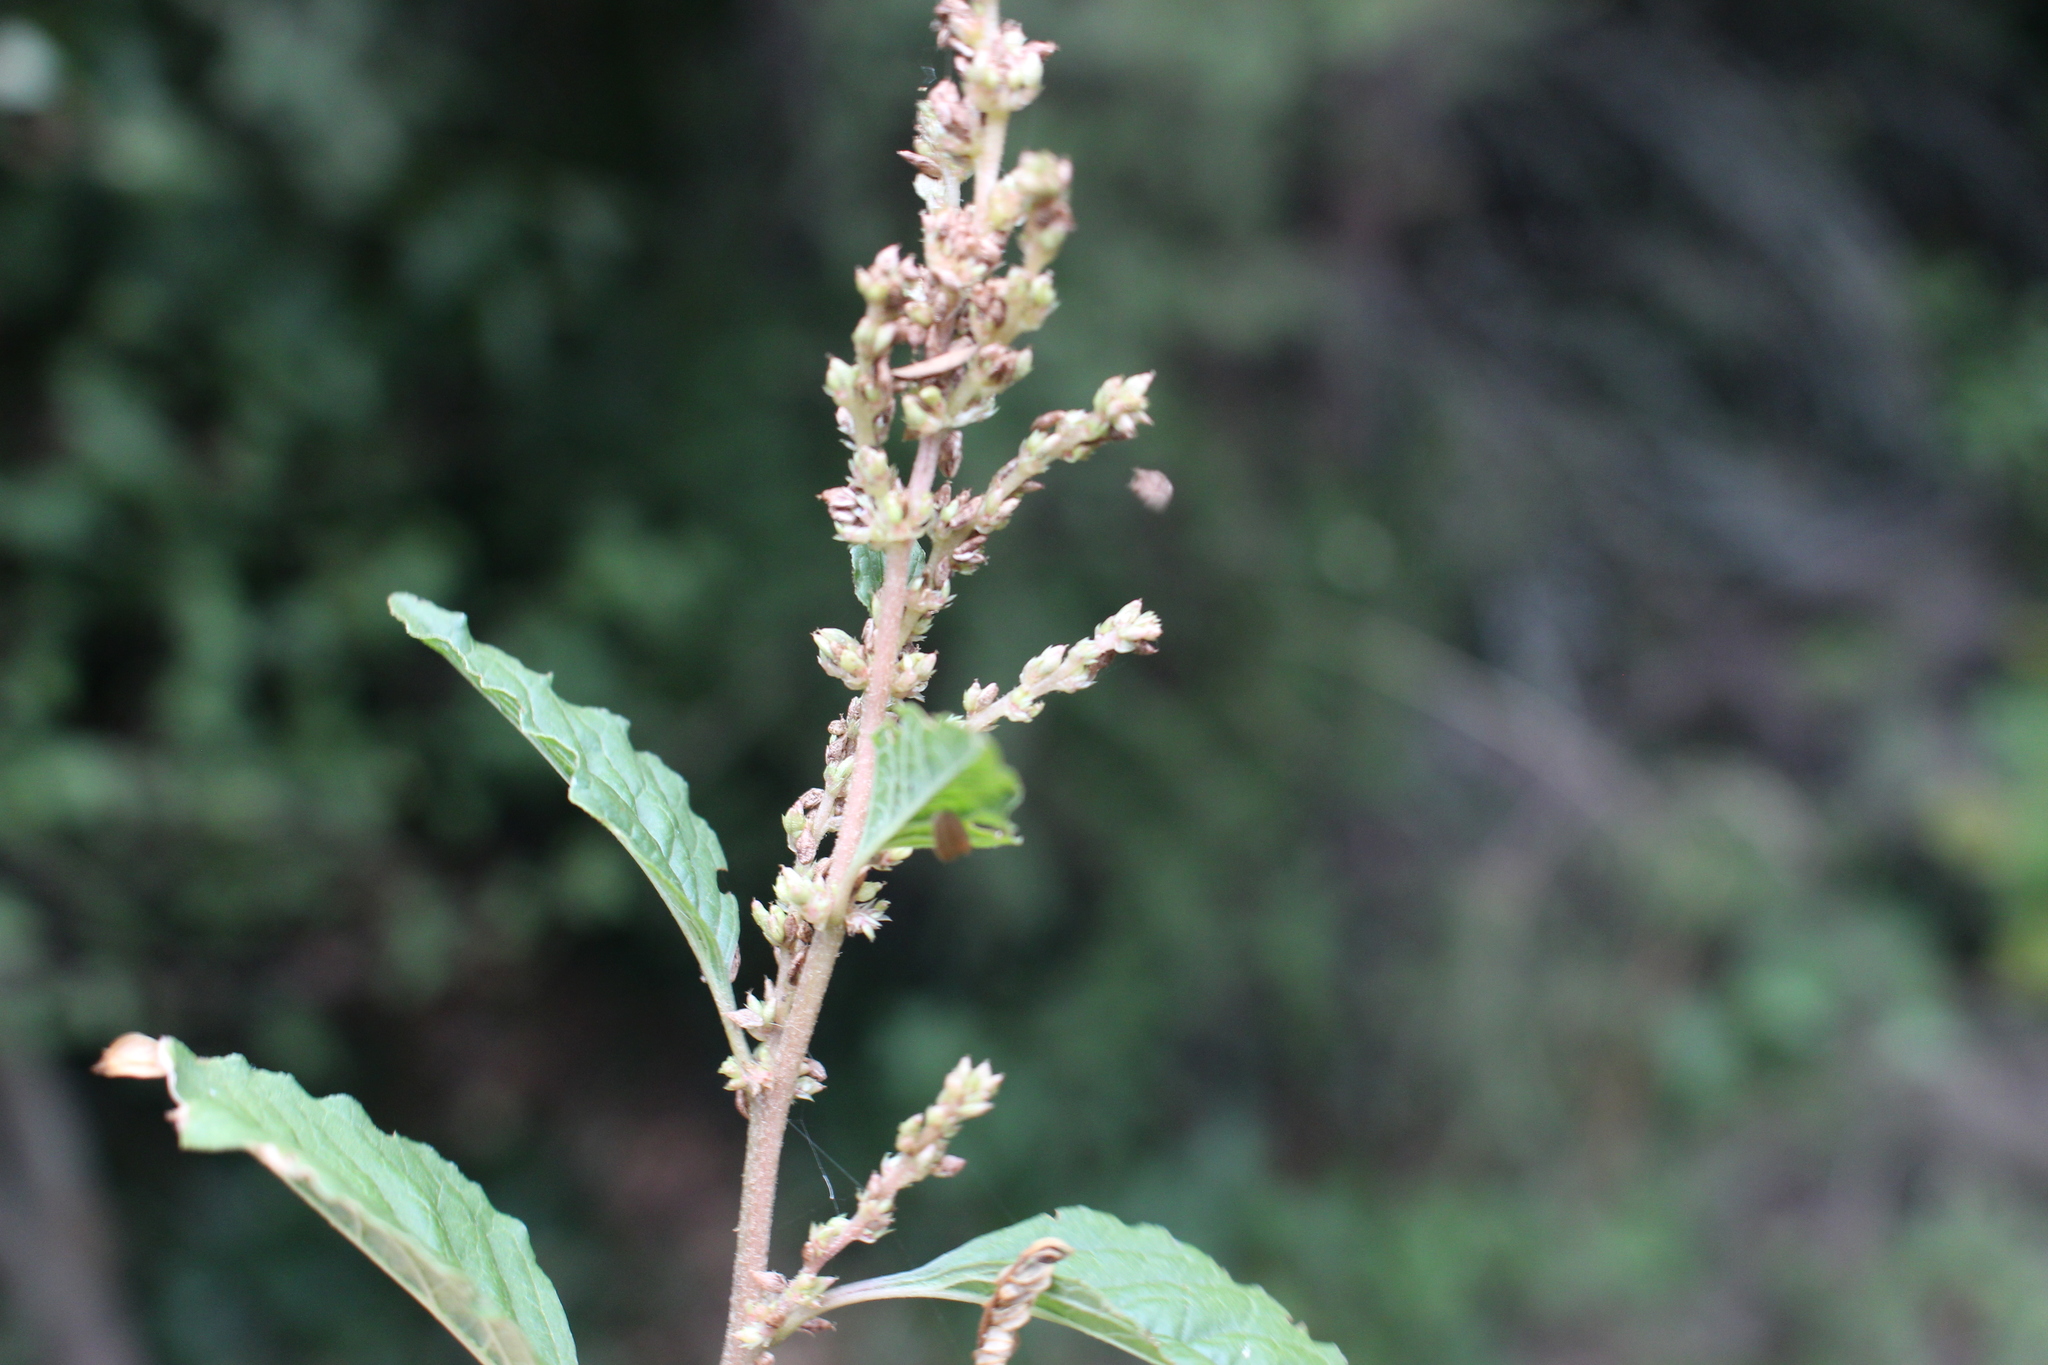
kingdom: Plantae
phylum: Tracheophyta
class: Magnoliopsida
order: Caryophyllales
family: Amaranthaceae
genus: Amaranthus
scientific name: Amaranthus deflexus
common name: Perennial pigweed
